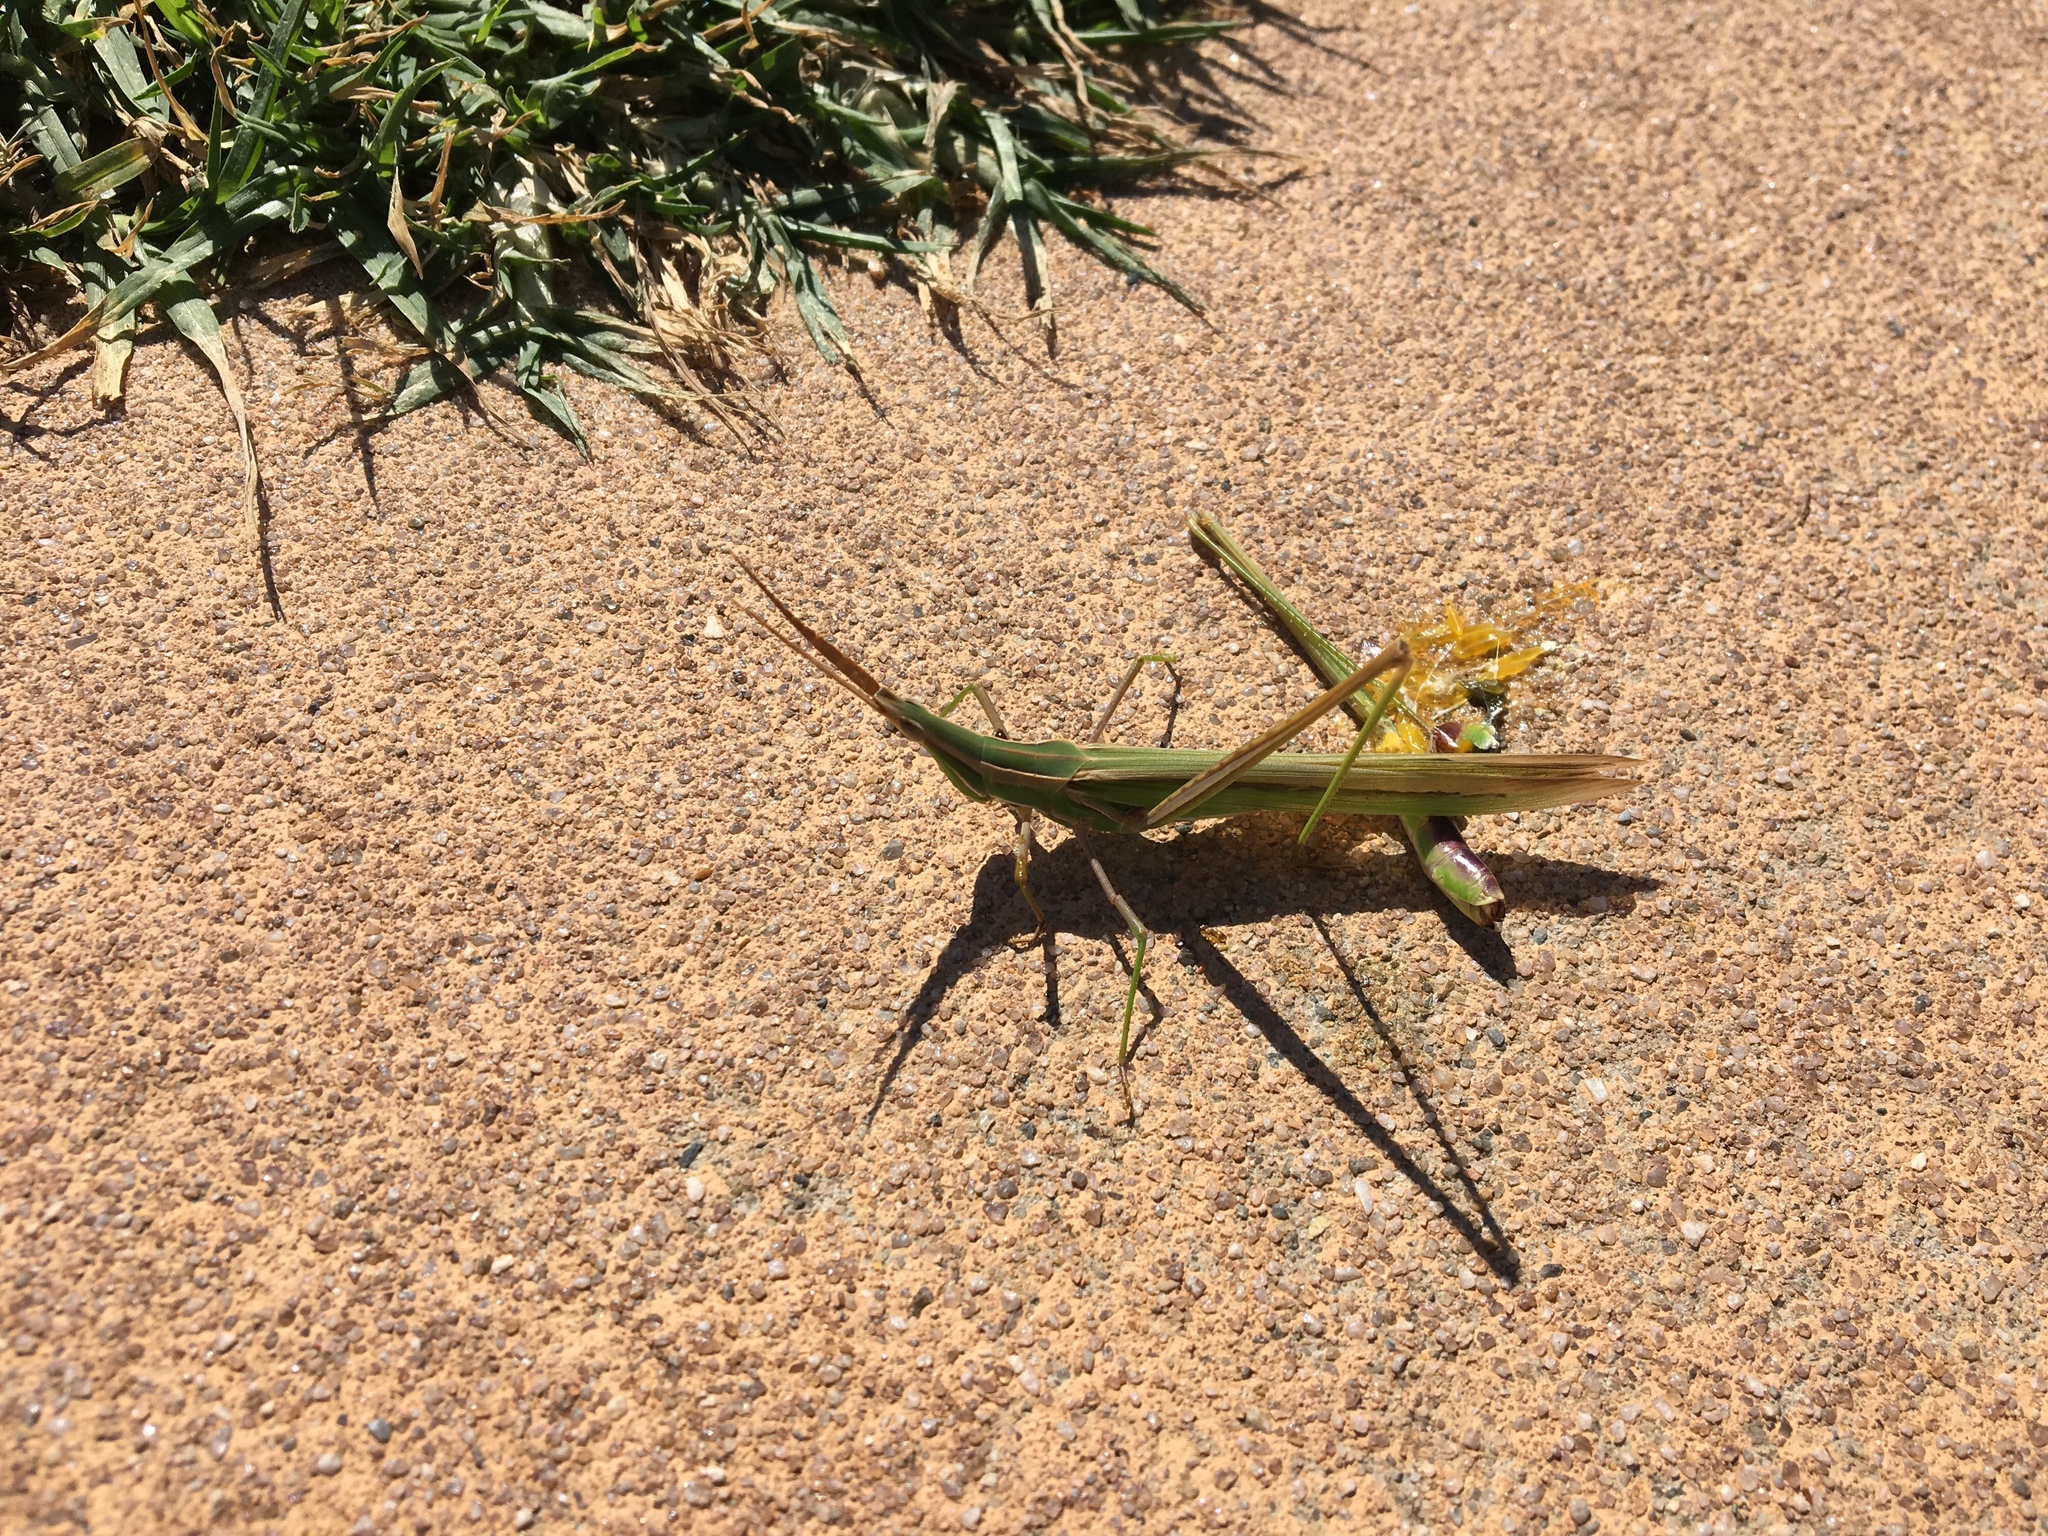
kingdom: Animalia
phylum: Arthropoda
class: Insecta
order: Orthoptera
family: Acrididae
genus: Acrida
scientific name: Acrida conica
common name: Giant green slantface
